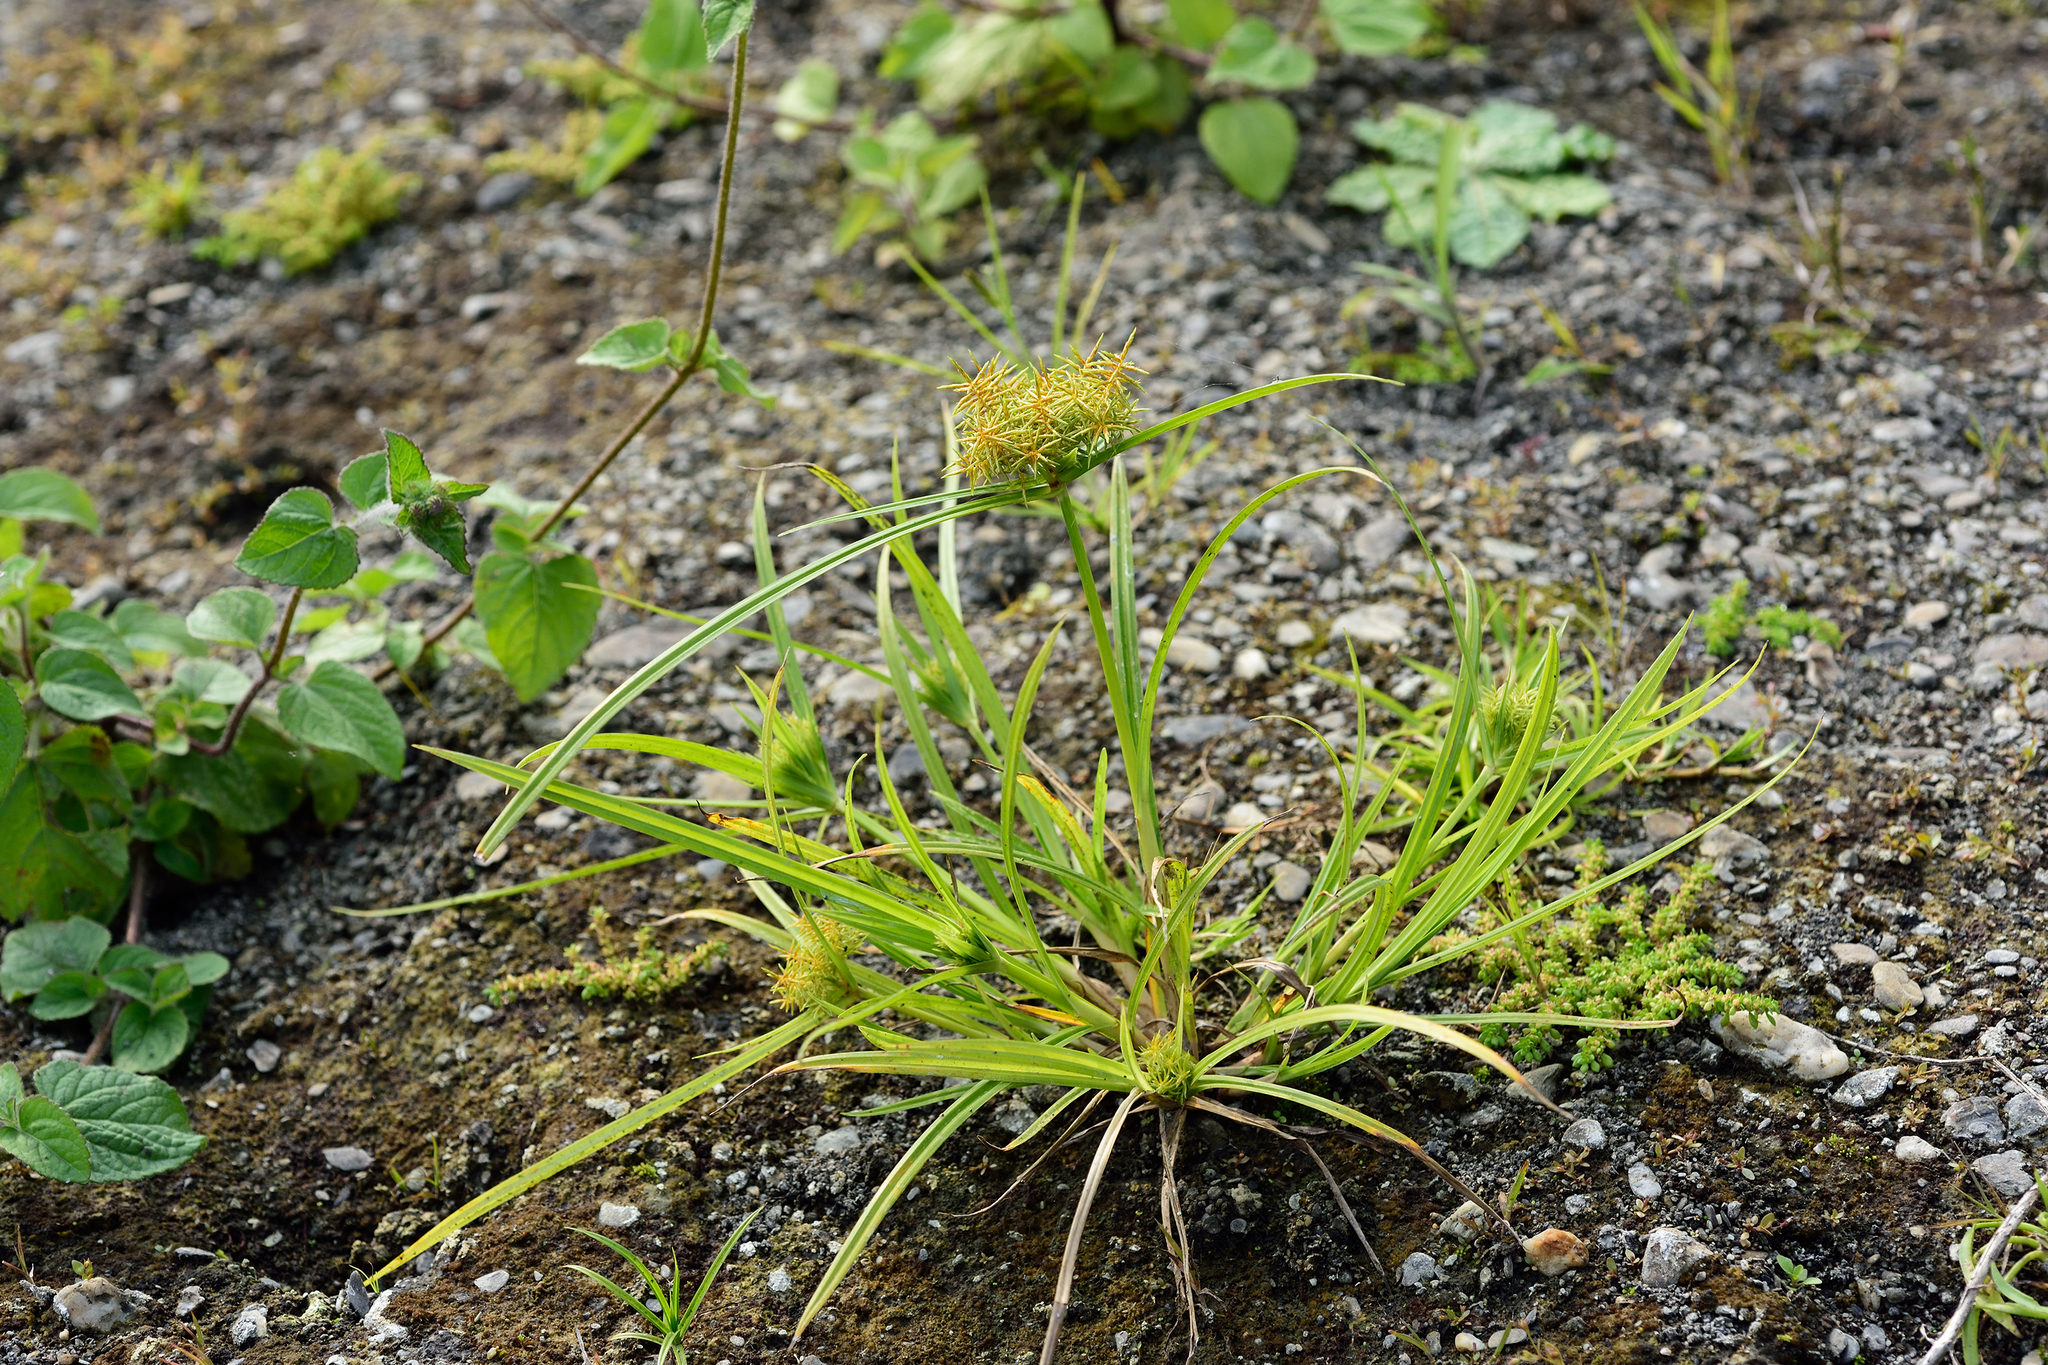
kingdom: Plantae
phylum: Tracheophyta
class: Liliopsida
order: Poales
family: Cyperaceae
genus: Cyperus
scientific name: Cyperus odoratus
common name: Fragrant flatsedge
